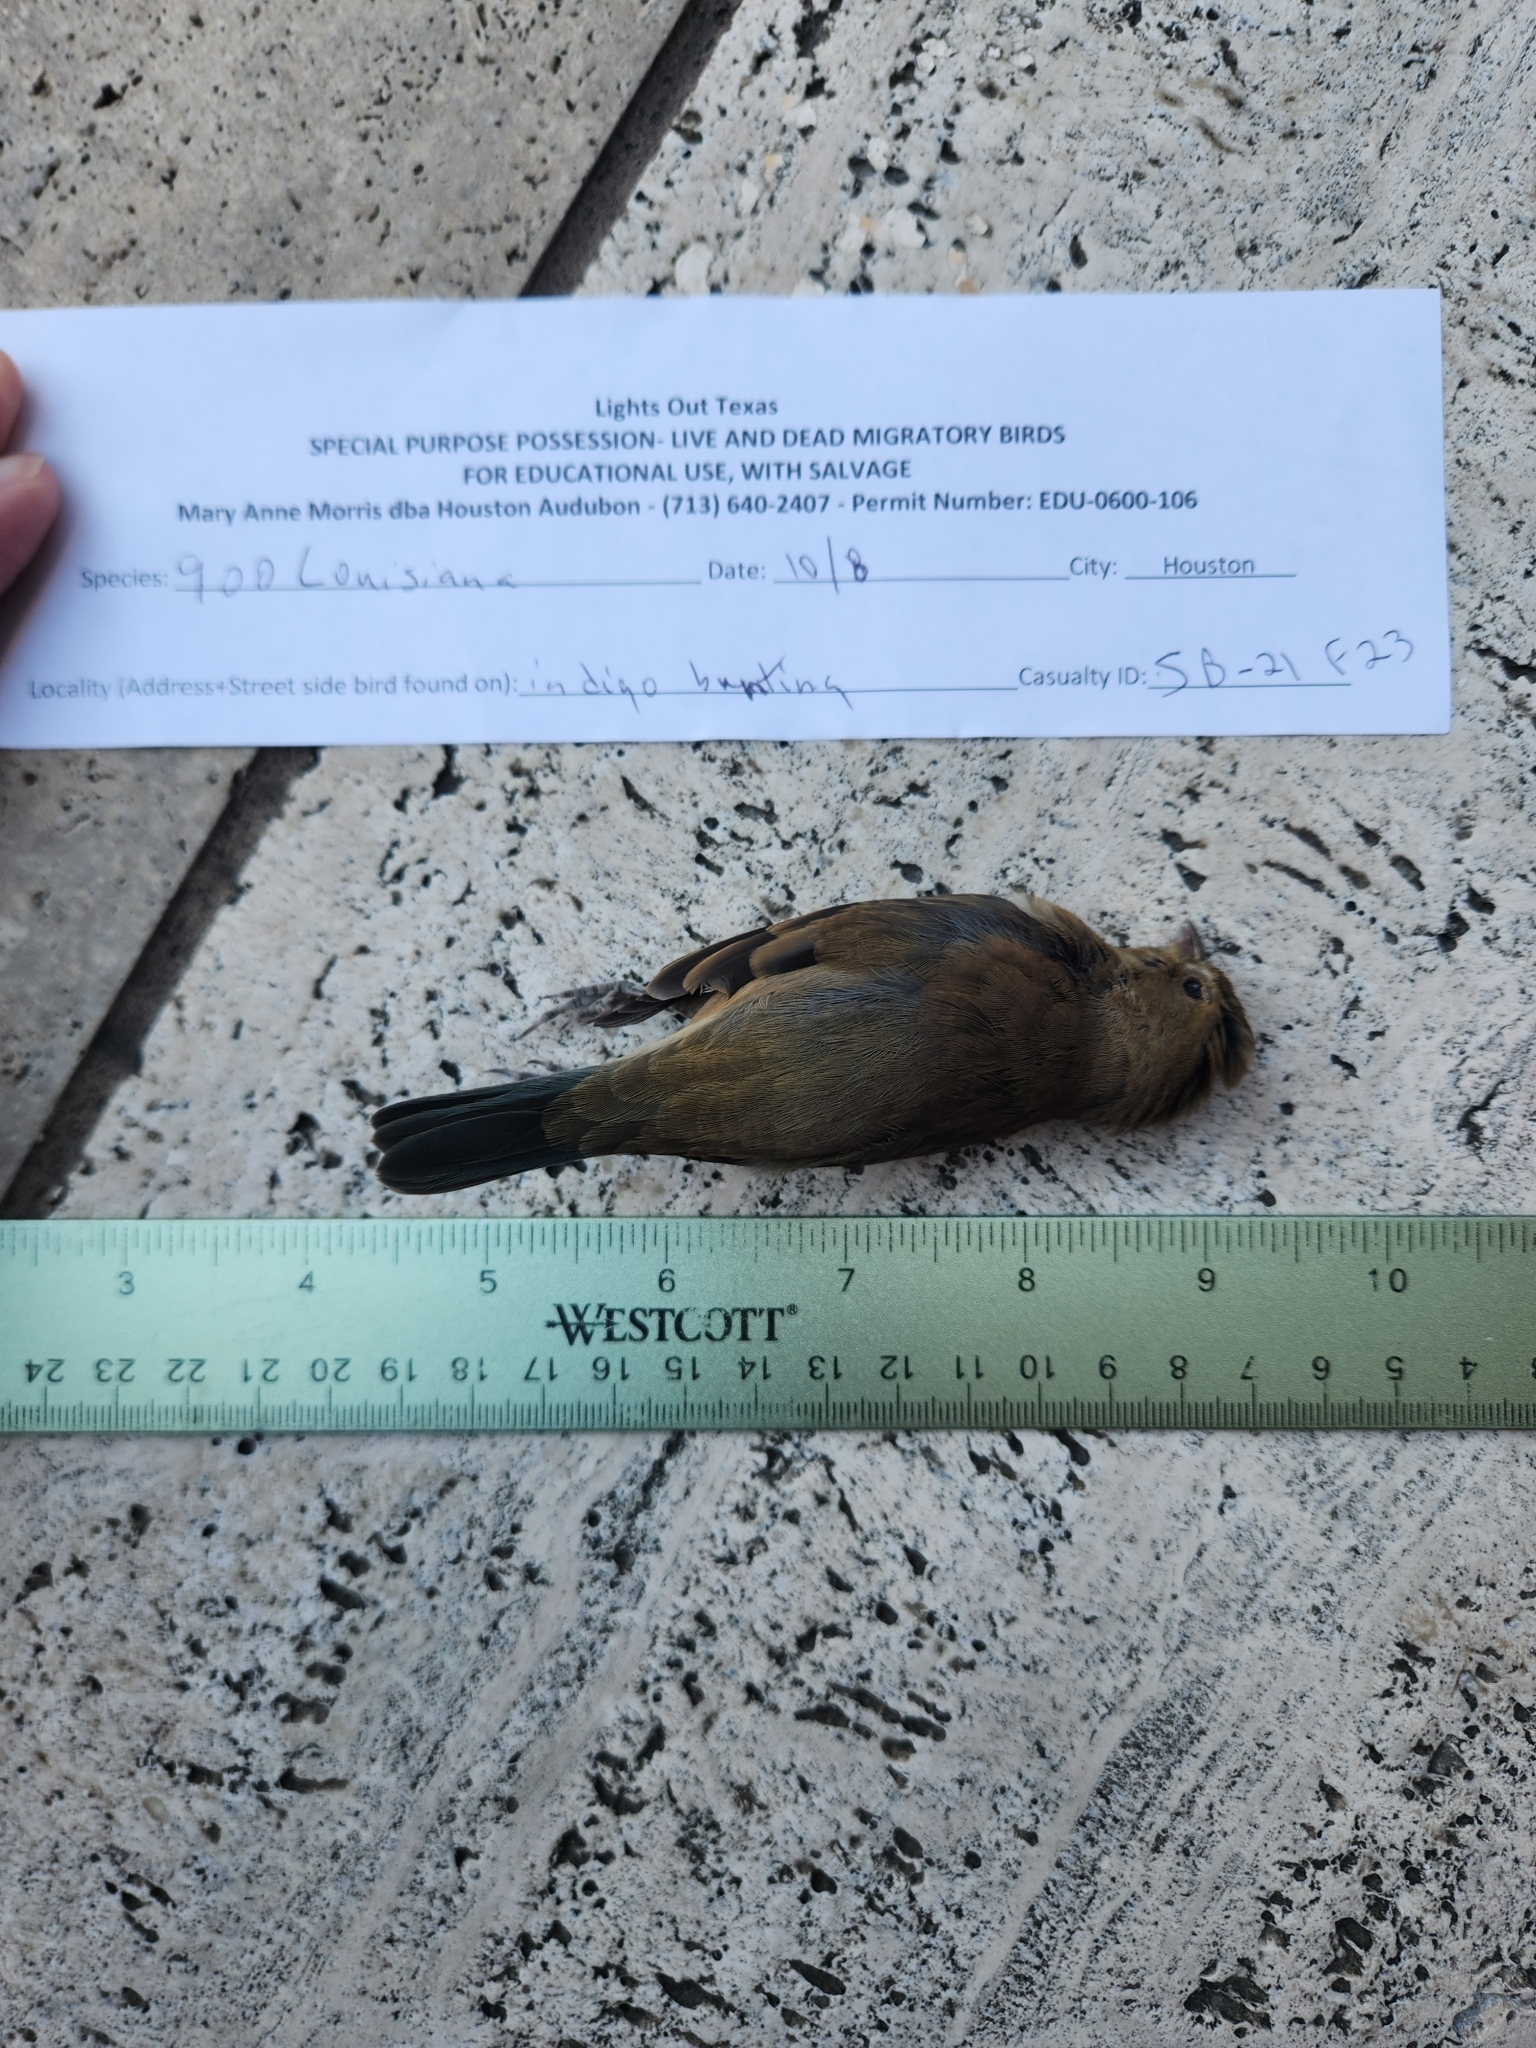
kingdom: Animalia
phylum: Chordata
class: Aves
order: Passeriformes
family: Cardinalidae
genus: Passerina
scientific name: Passerina cyanea
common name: Indigo bunting
